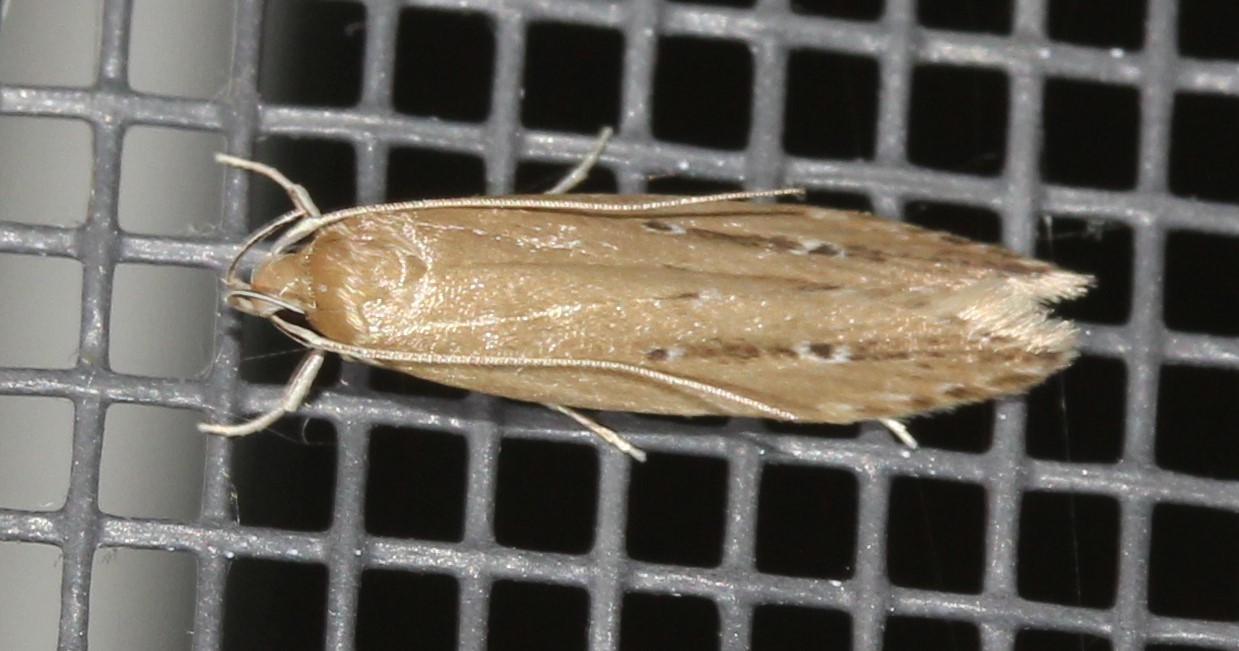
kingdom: Animalia
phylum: Arthropoda
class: Insecta
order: Lepidoptera
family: Cosmopterigidae
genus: Limnaecia
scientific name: Limnaecia phragmitella
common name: Bulrush cosmet
